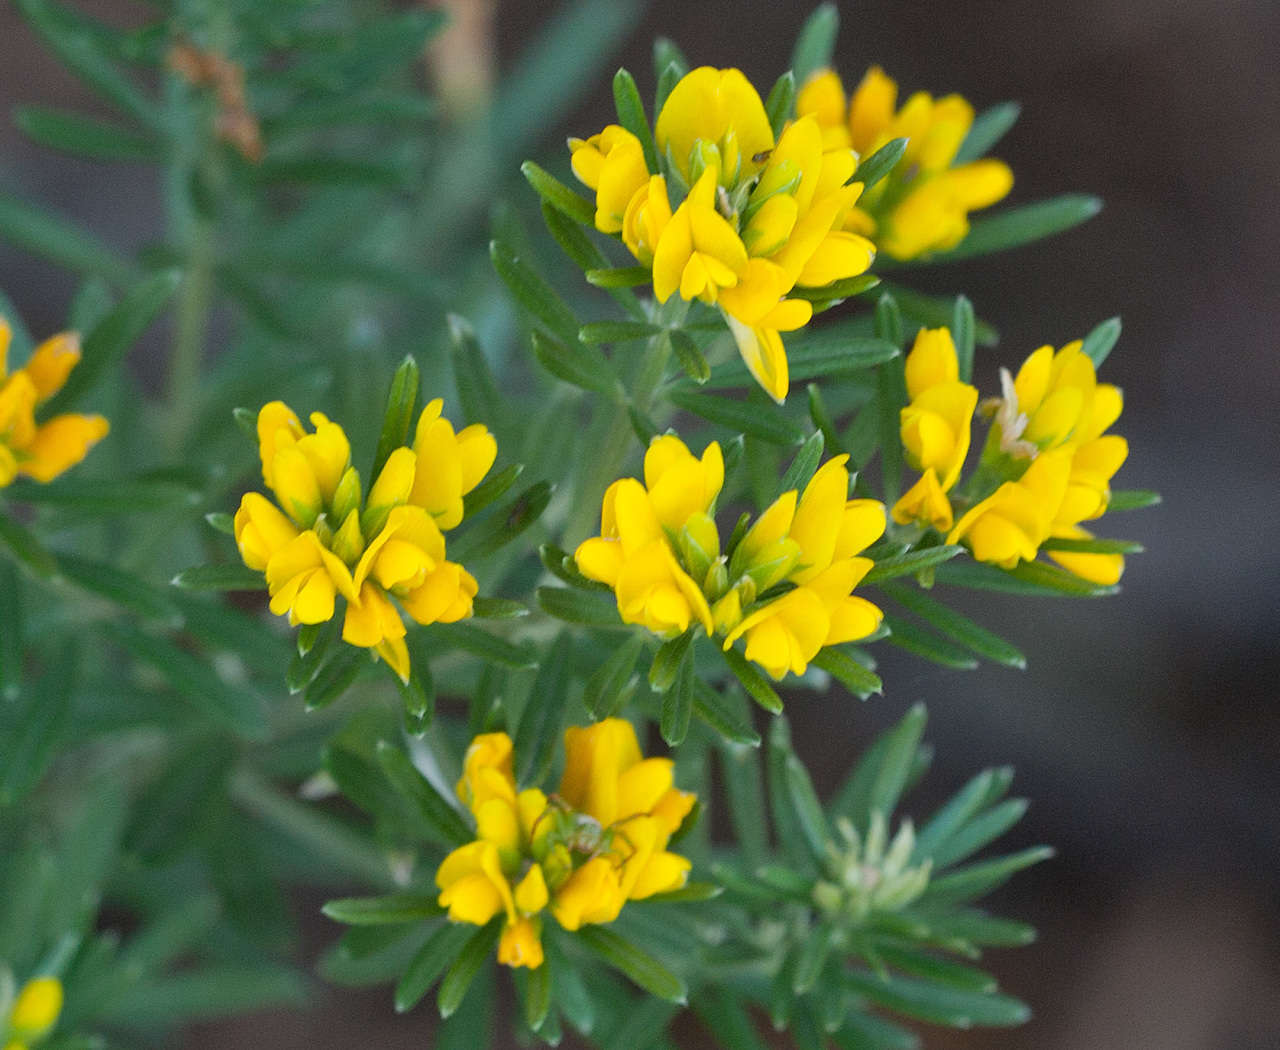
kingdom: Plantae
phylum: Tracheophyta
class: Magnoliopsida
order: Fabales
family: Fabaceae
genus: Genista
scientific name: Genista linifolia
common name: Mediterranean broom
